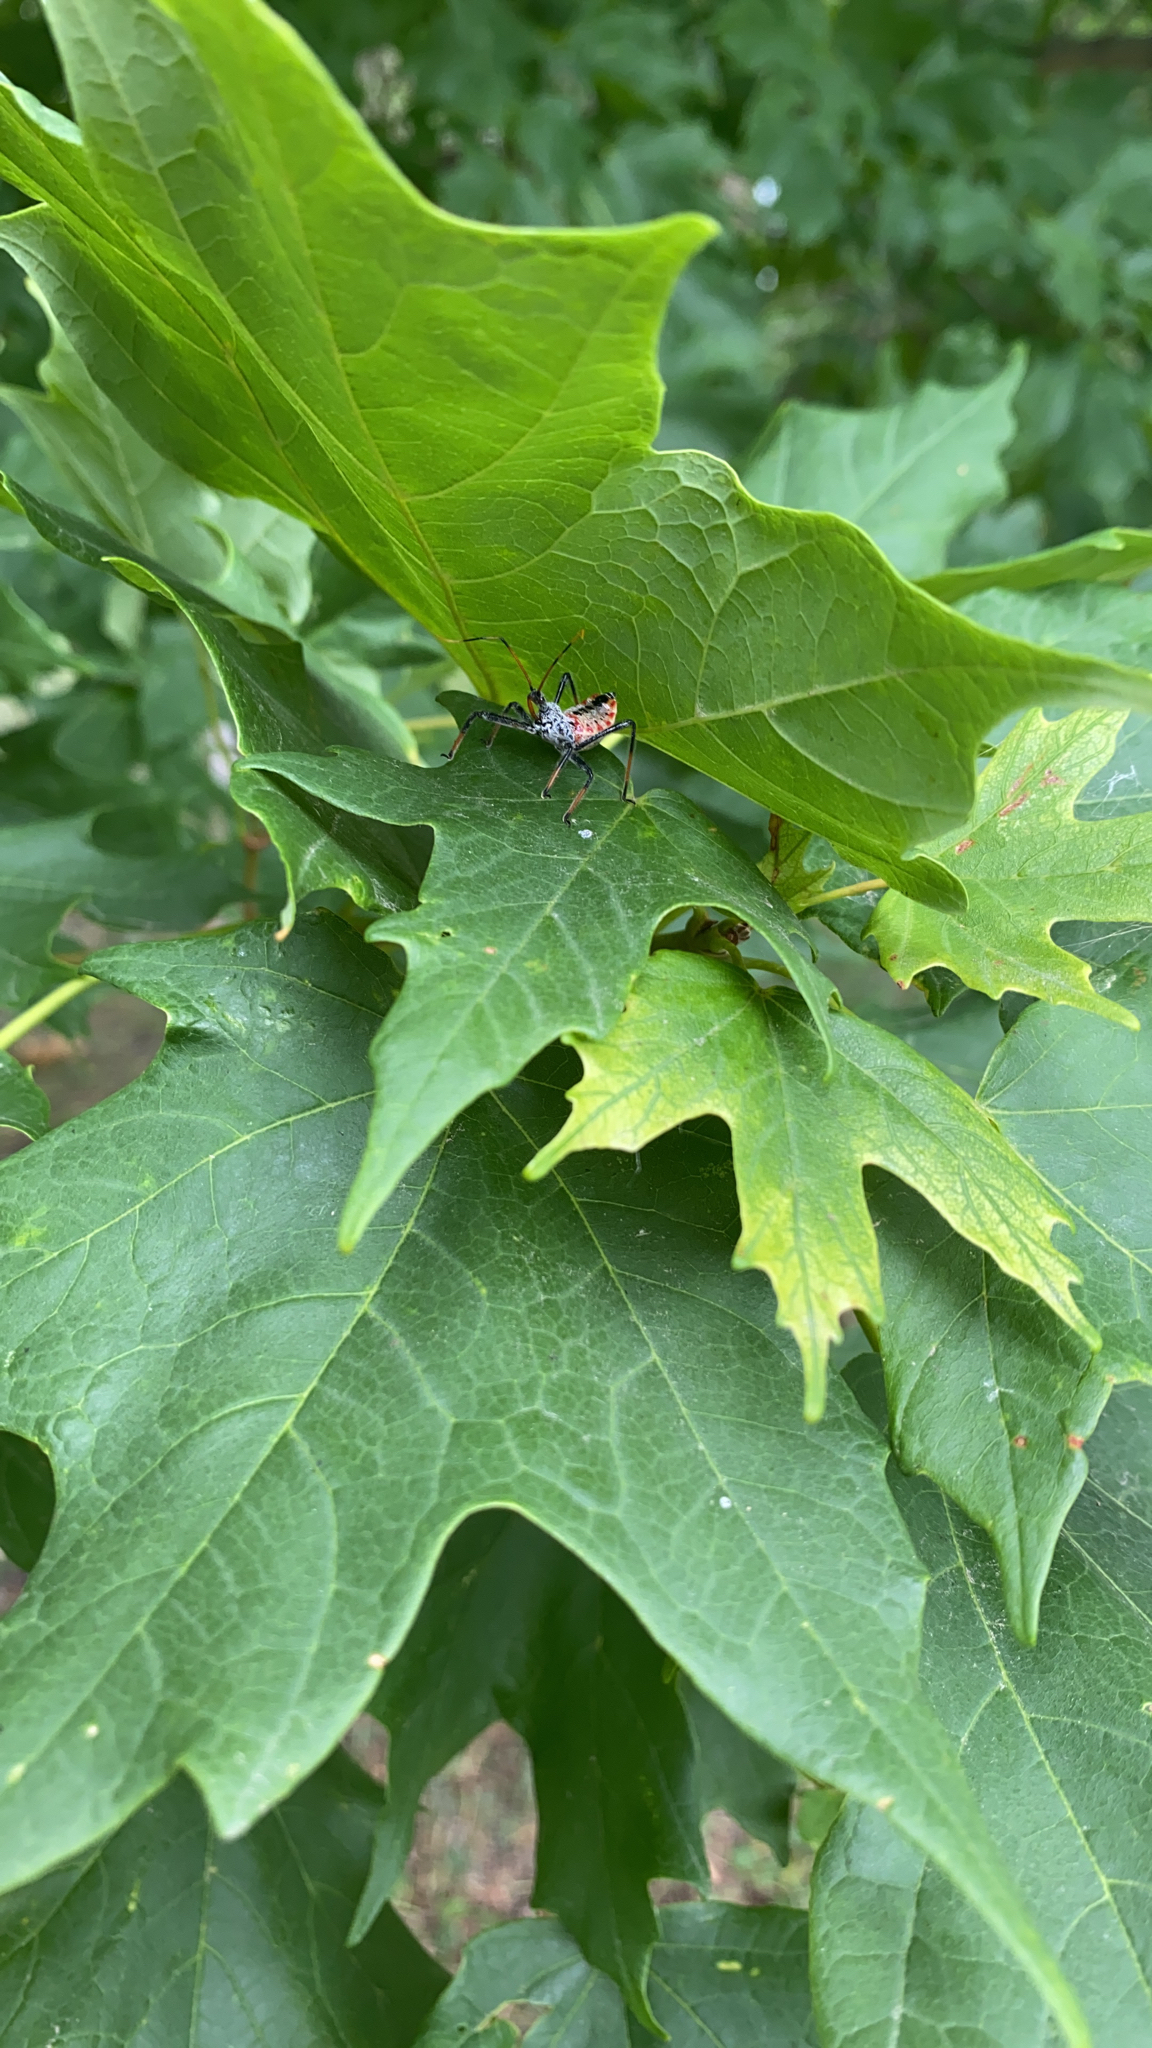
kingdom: Animalia
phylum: Arthropoda
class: Insecta
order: Hemiptera
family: Reduviidae
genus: Arilus
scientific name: Arilus cristatus
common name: North american wheel bug
